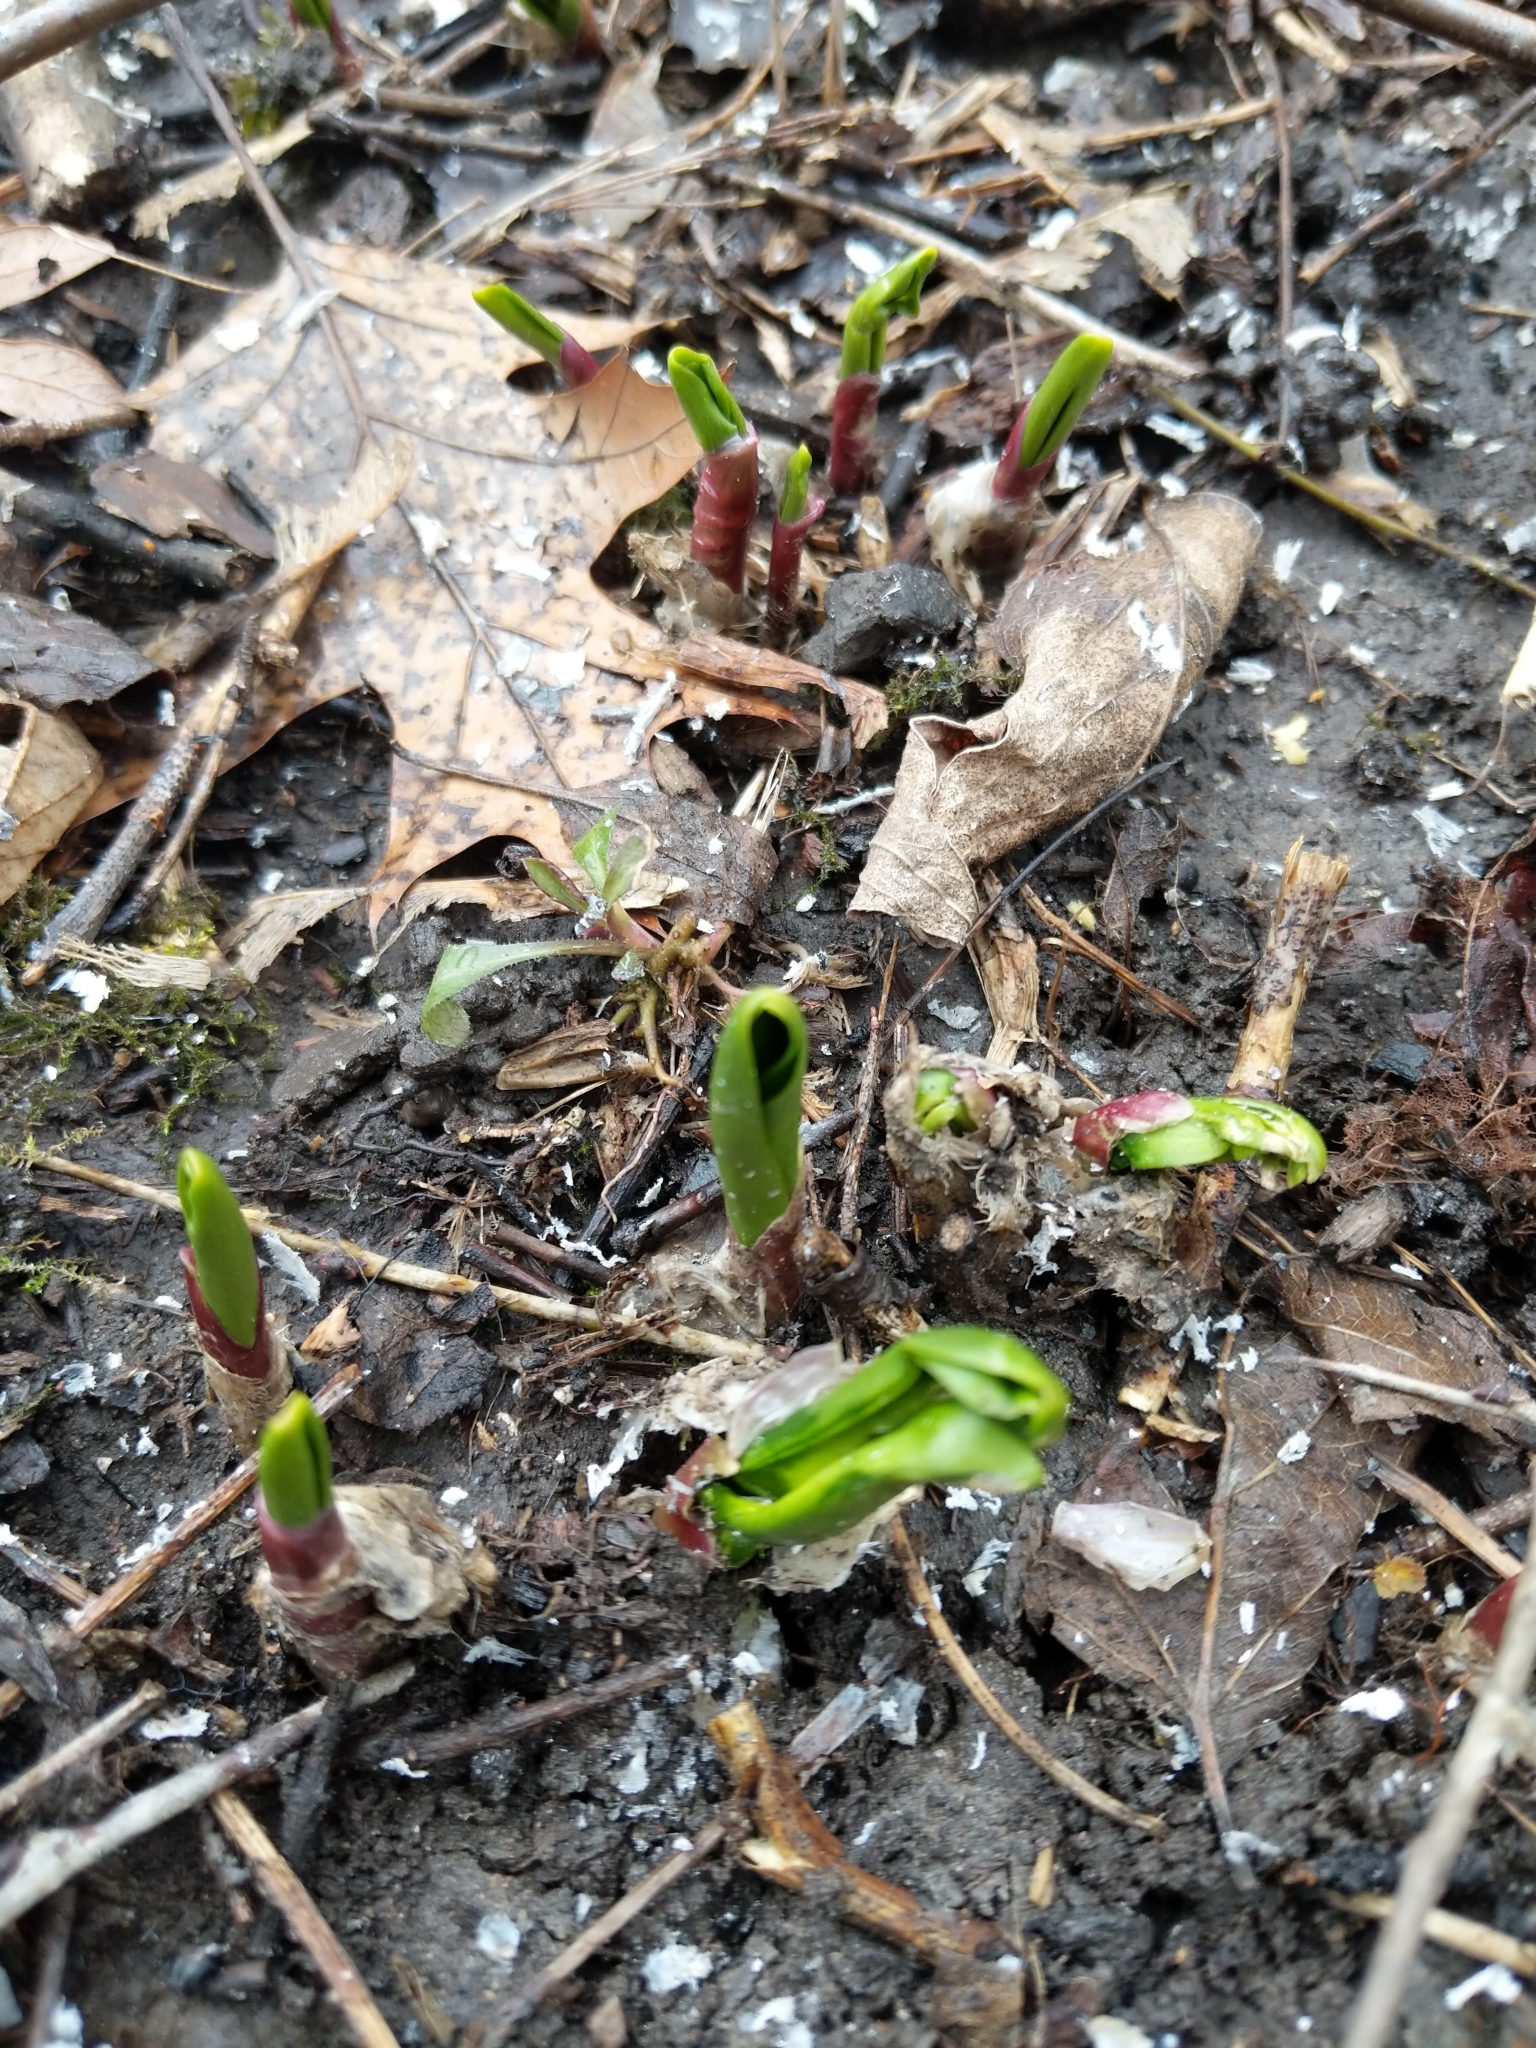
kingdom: Plantae
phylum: Tracheophyta
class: Liliopsida
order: Asparagales
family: Amaryllidaceae
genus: Allium
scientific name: Allium tricoccum
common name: Ramp
